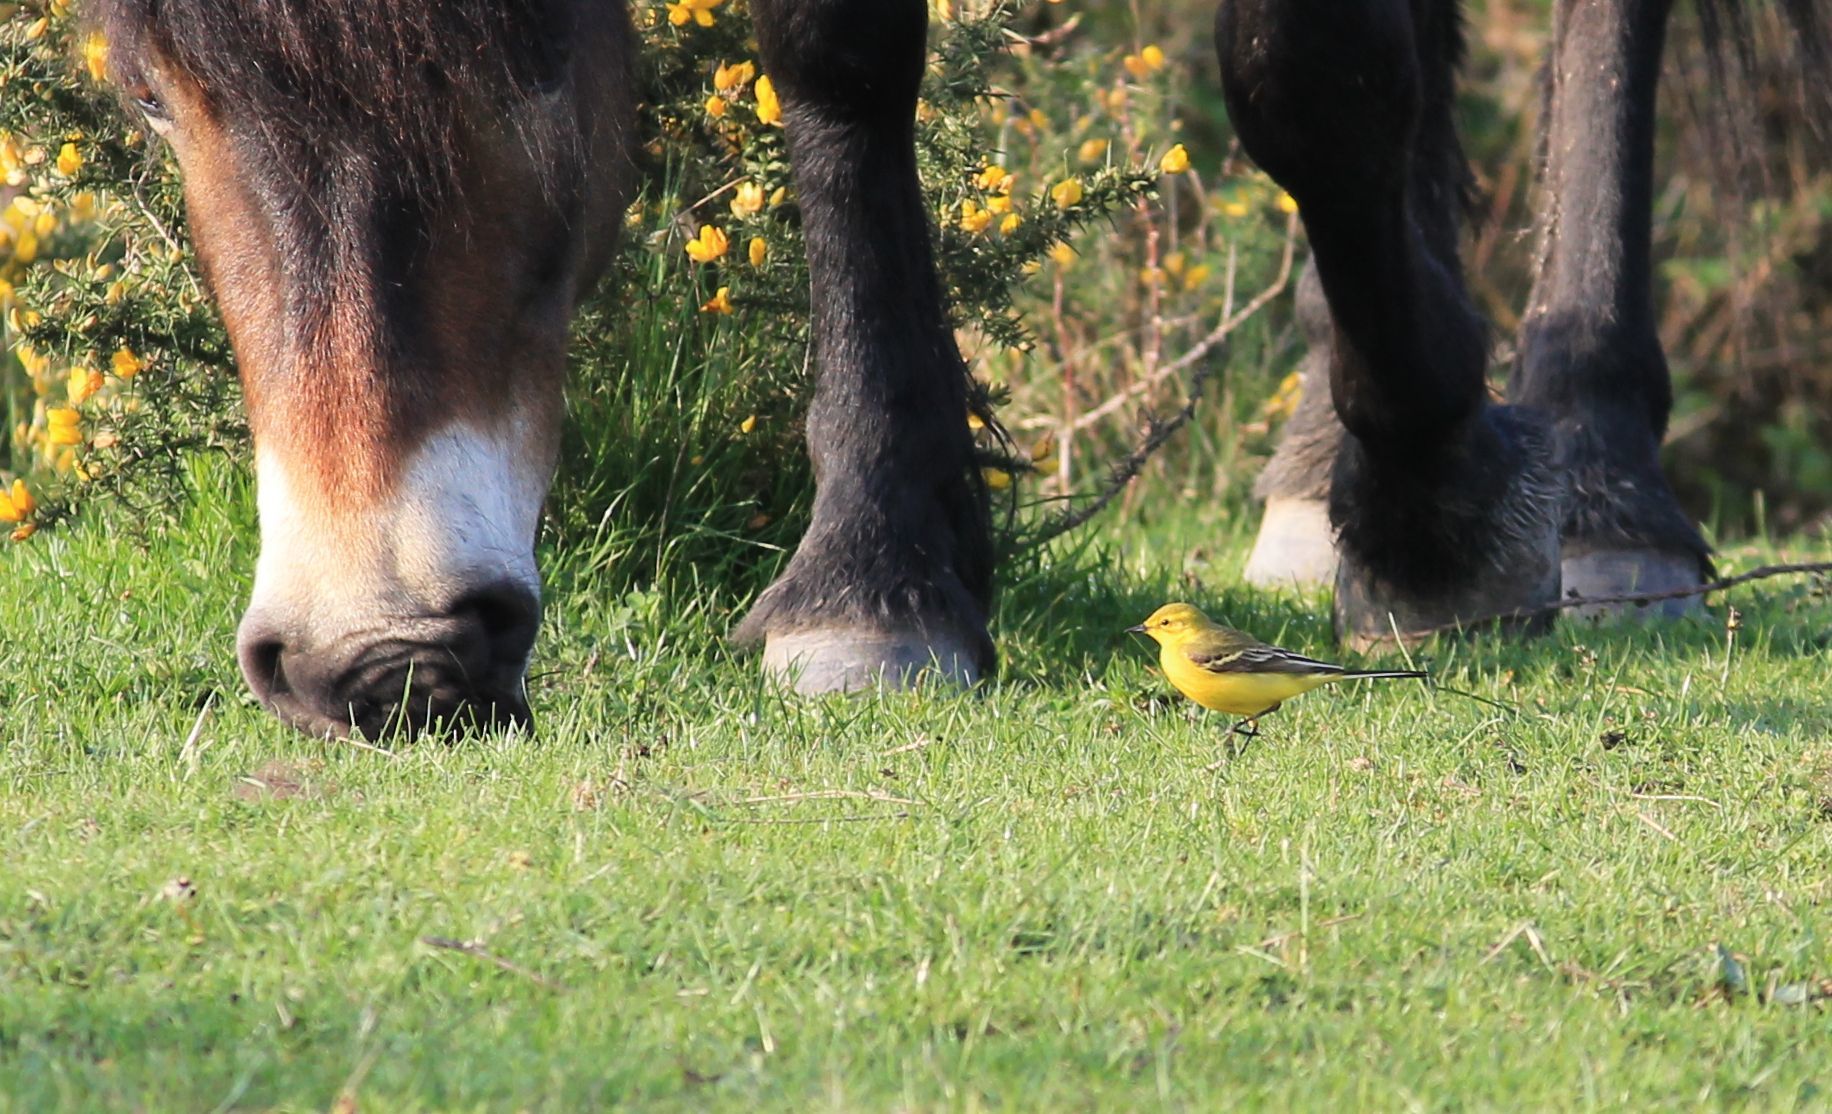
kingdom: Animalia
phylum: Chordata
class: Aves
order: Passeriformes
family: Motacillidae
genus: Motacilla
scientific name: Motacilla flava
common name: Western yellow wagtail
